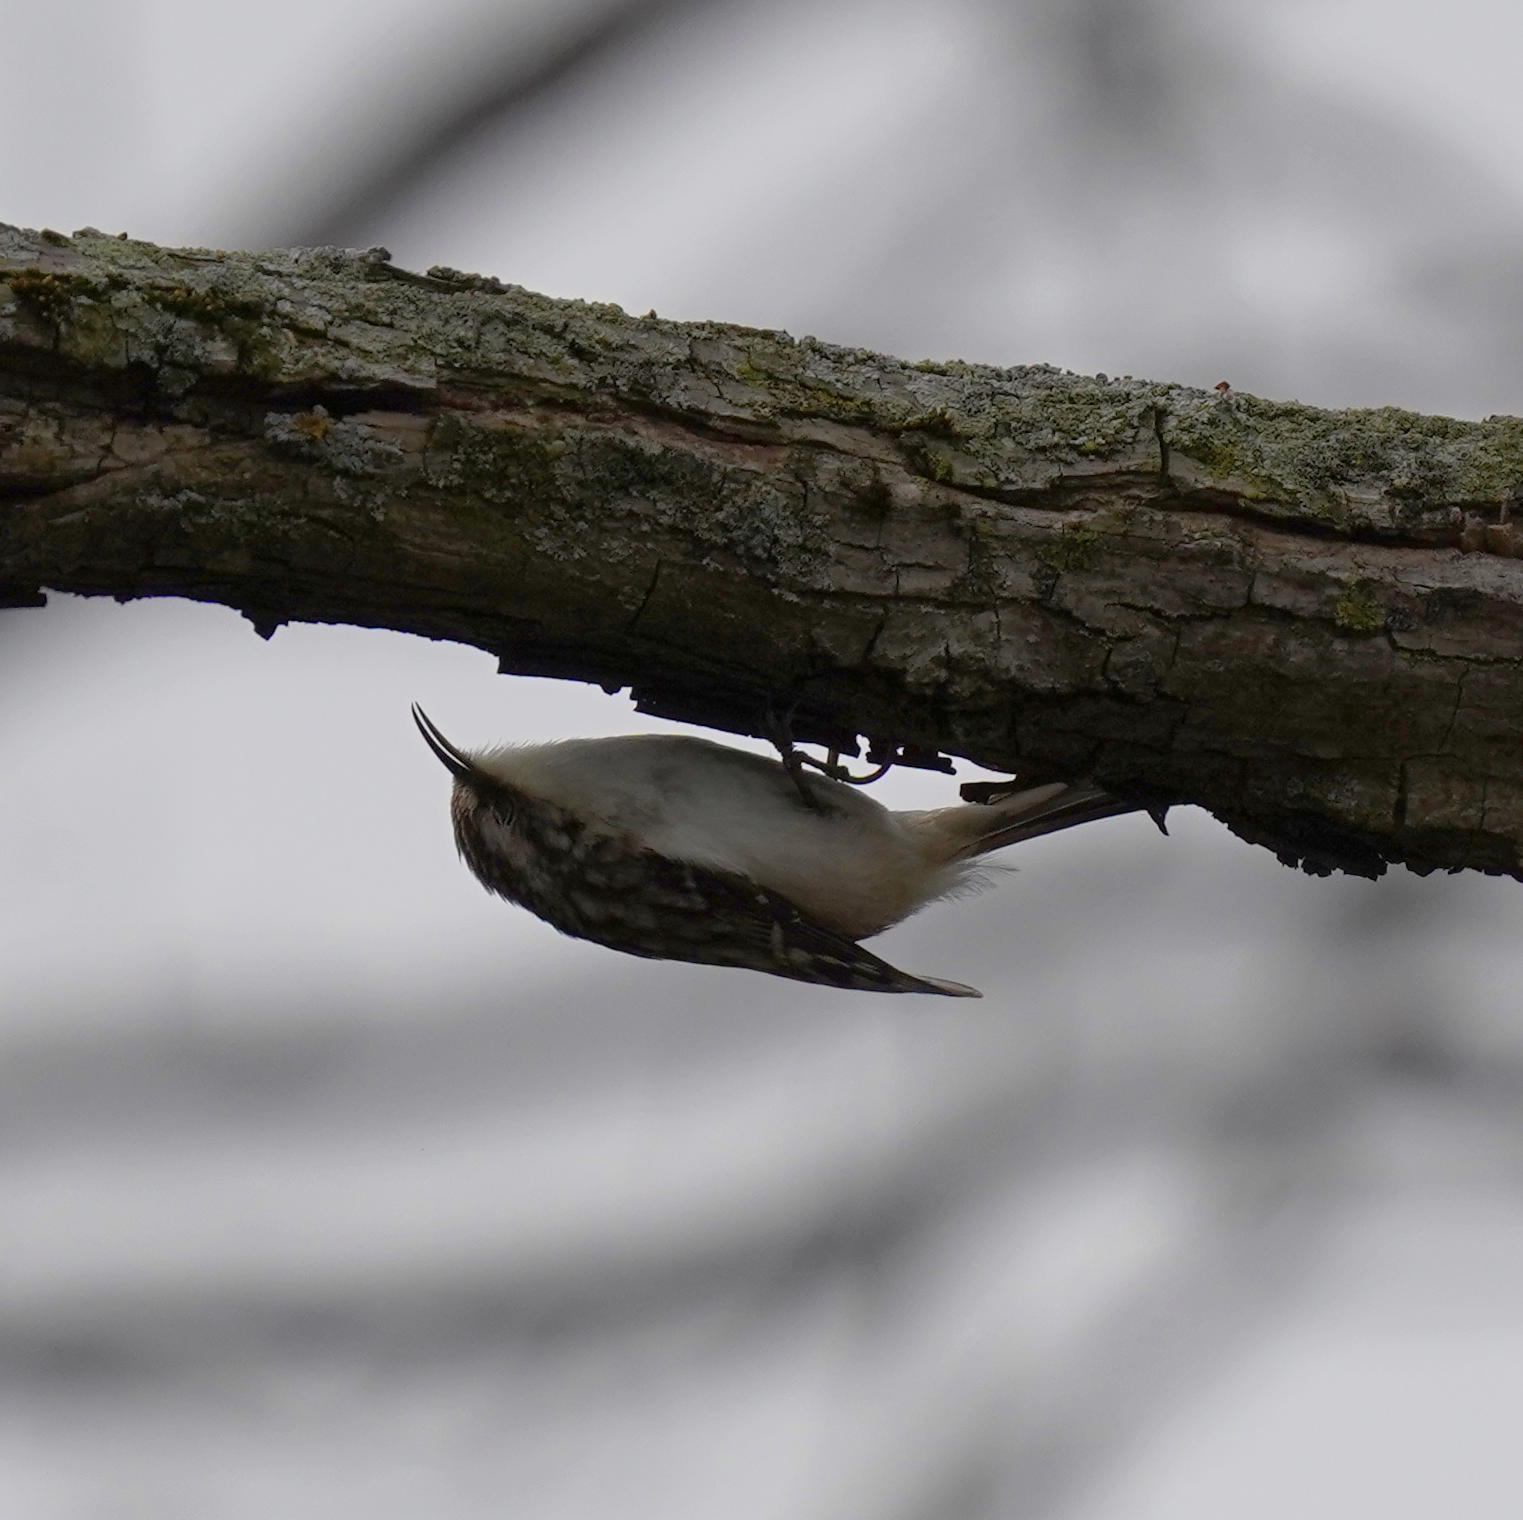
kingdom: Animalia
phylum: Chordata
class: Aves
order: Passeriformes
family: Certhiidae
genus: Certhia
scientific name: Certhia americana
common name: Brown creeper
